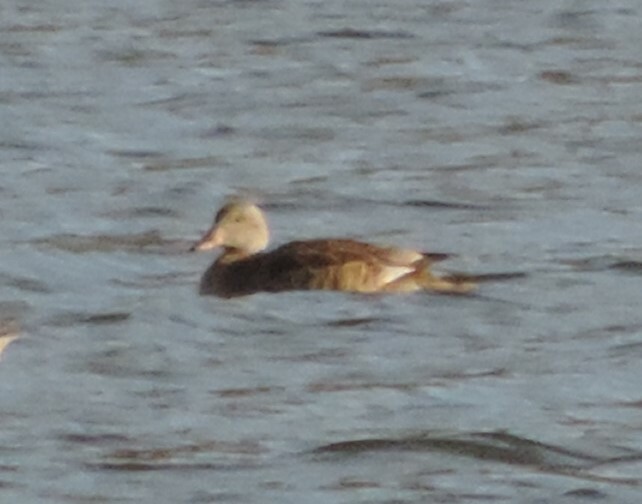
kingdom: Animalia
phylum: Chordata
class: Aves
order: Anseriformes
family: Anatidae
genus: Mareca
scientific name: Mareca strepera
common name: Gadwall
